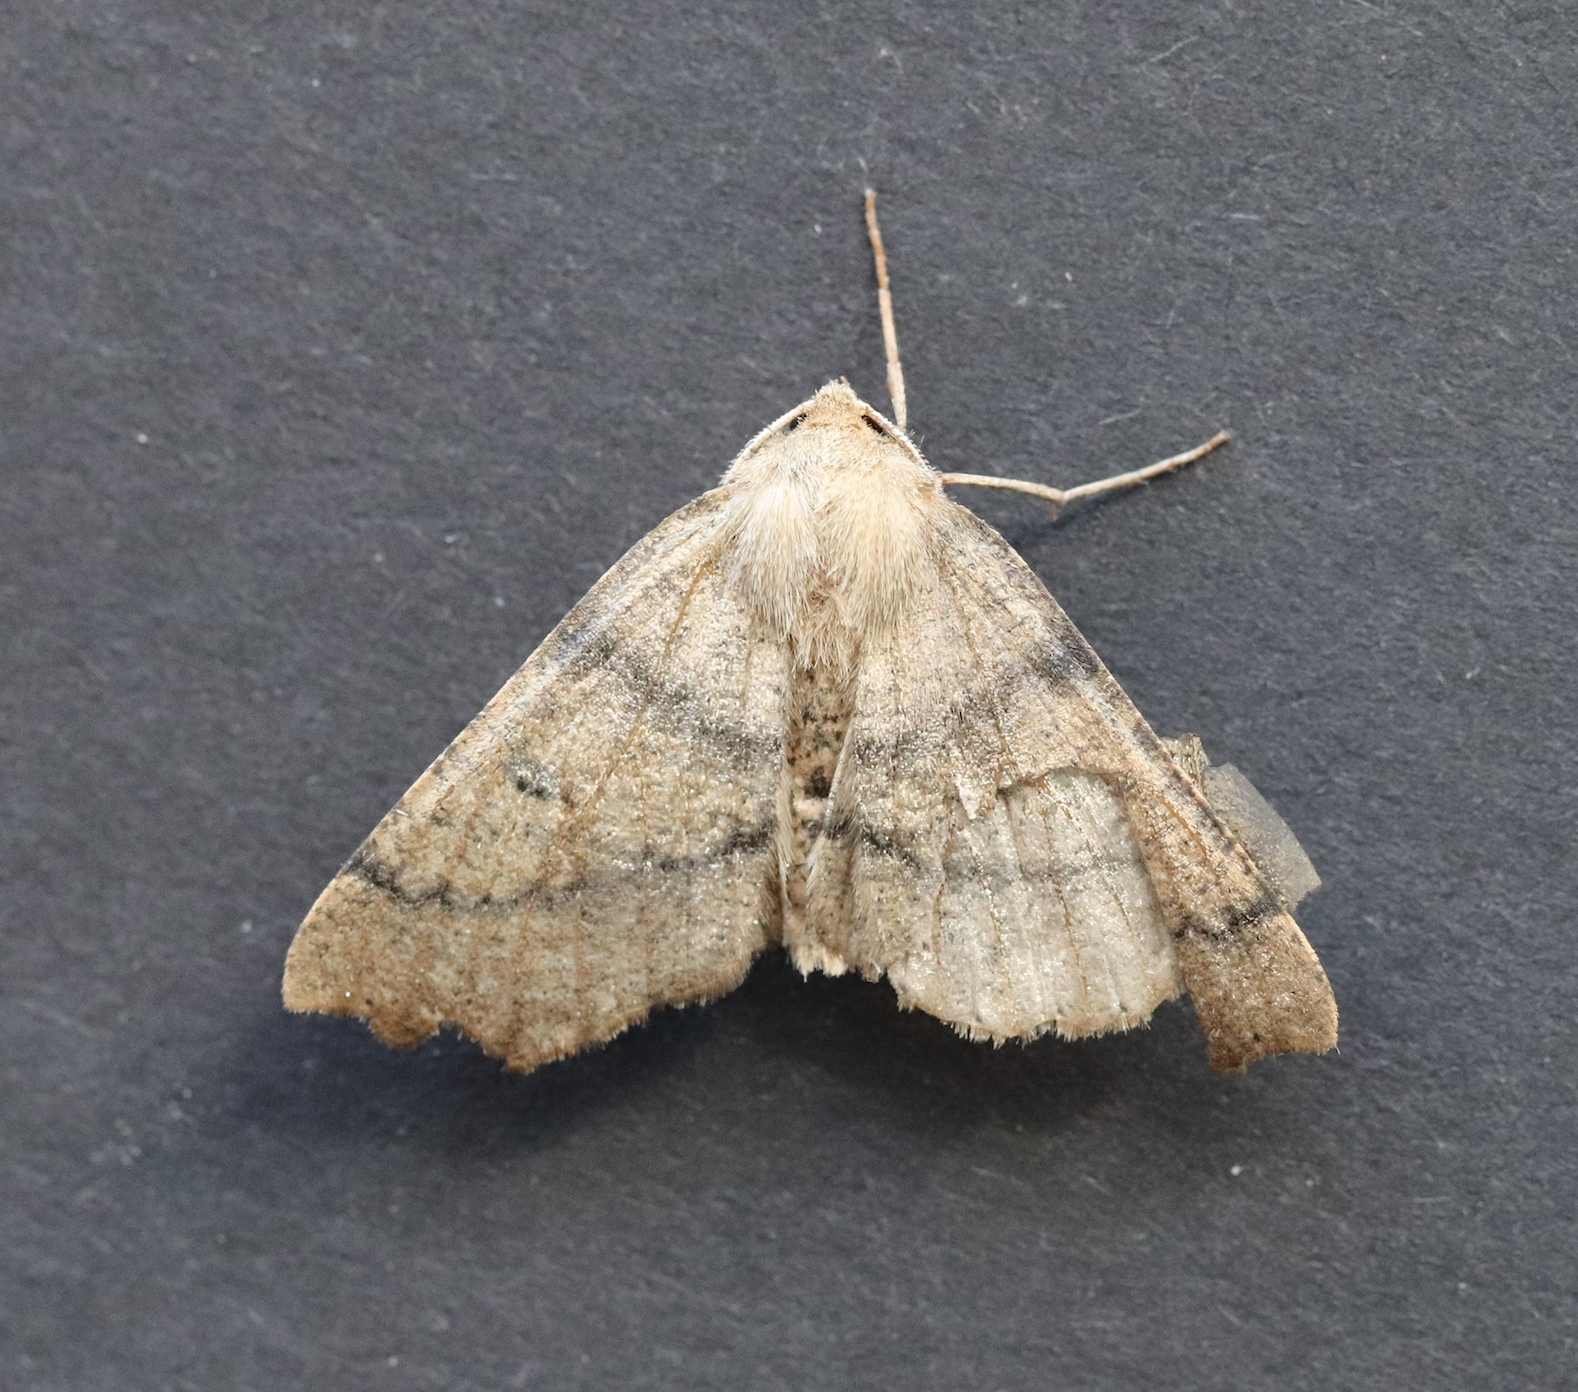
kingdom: Animalia
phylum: Arthropoda
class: Insecta
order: Lepidoptera
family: Geometridae
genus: Odontopera
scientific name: Odontopera bidentata
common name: Scalloped hazel
